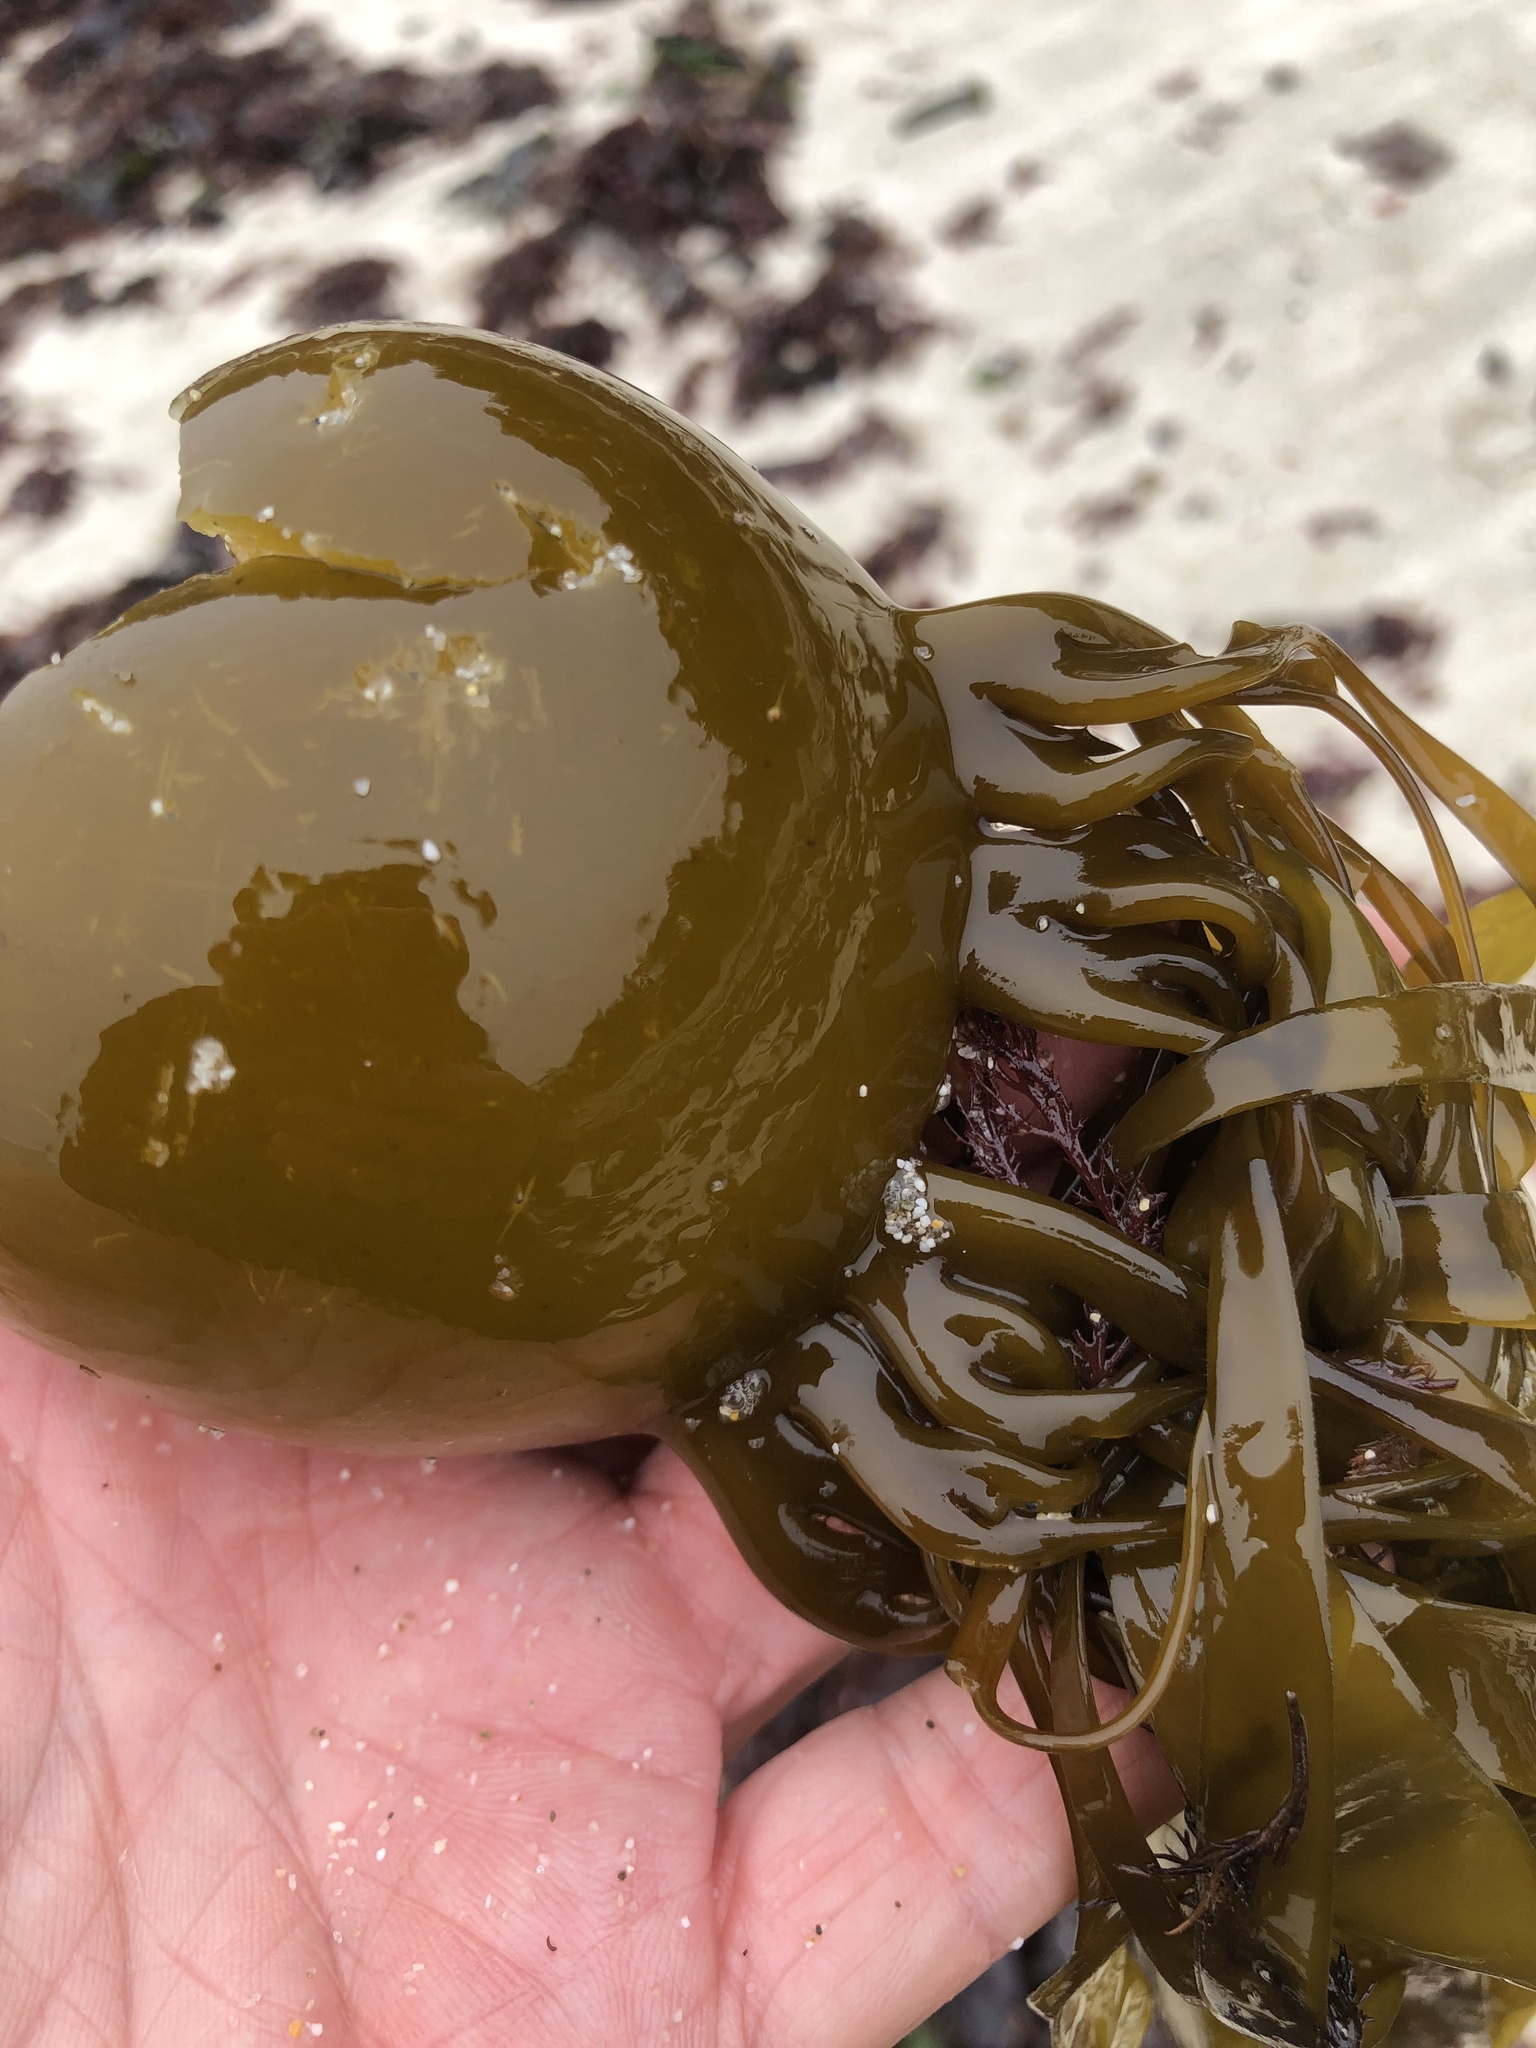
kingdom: Chromista
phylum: Ochrophyta
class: Phaeophyceae
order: Laminariales
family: Laminariaceae
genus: Nereocystis
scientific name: Nereocystis luetkeana
